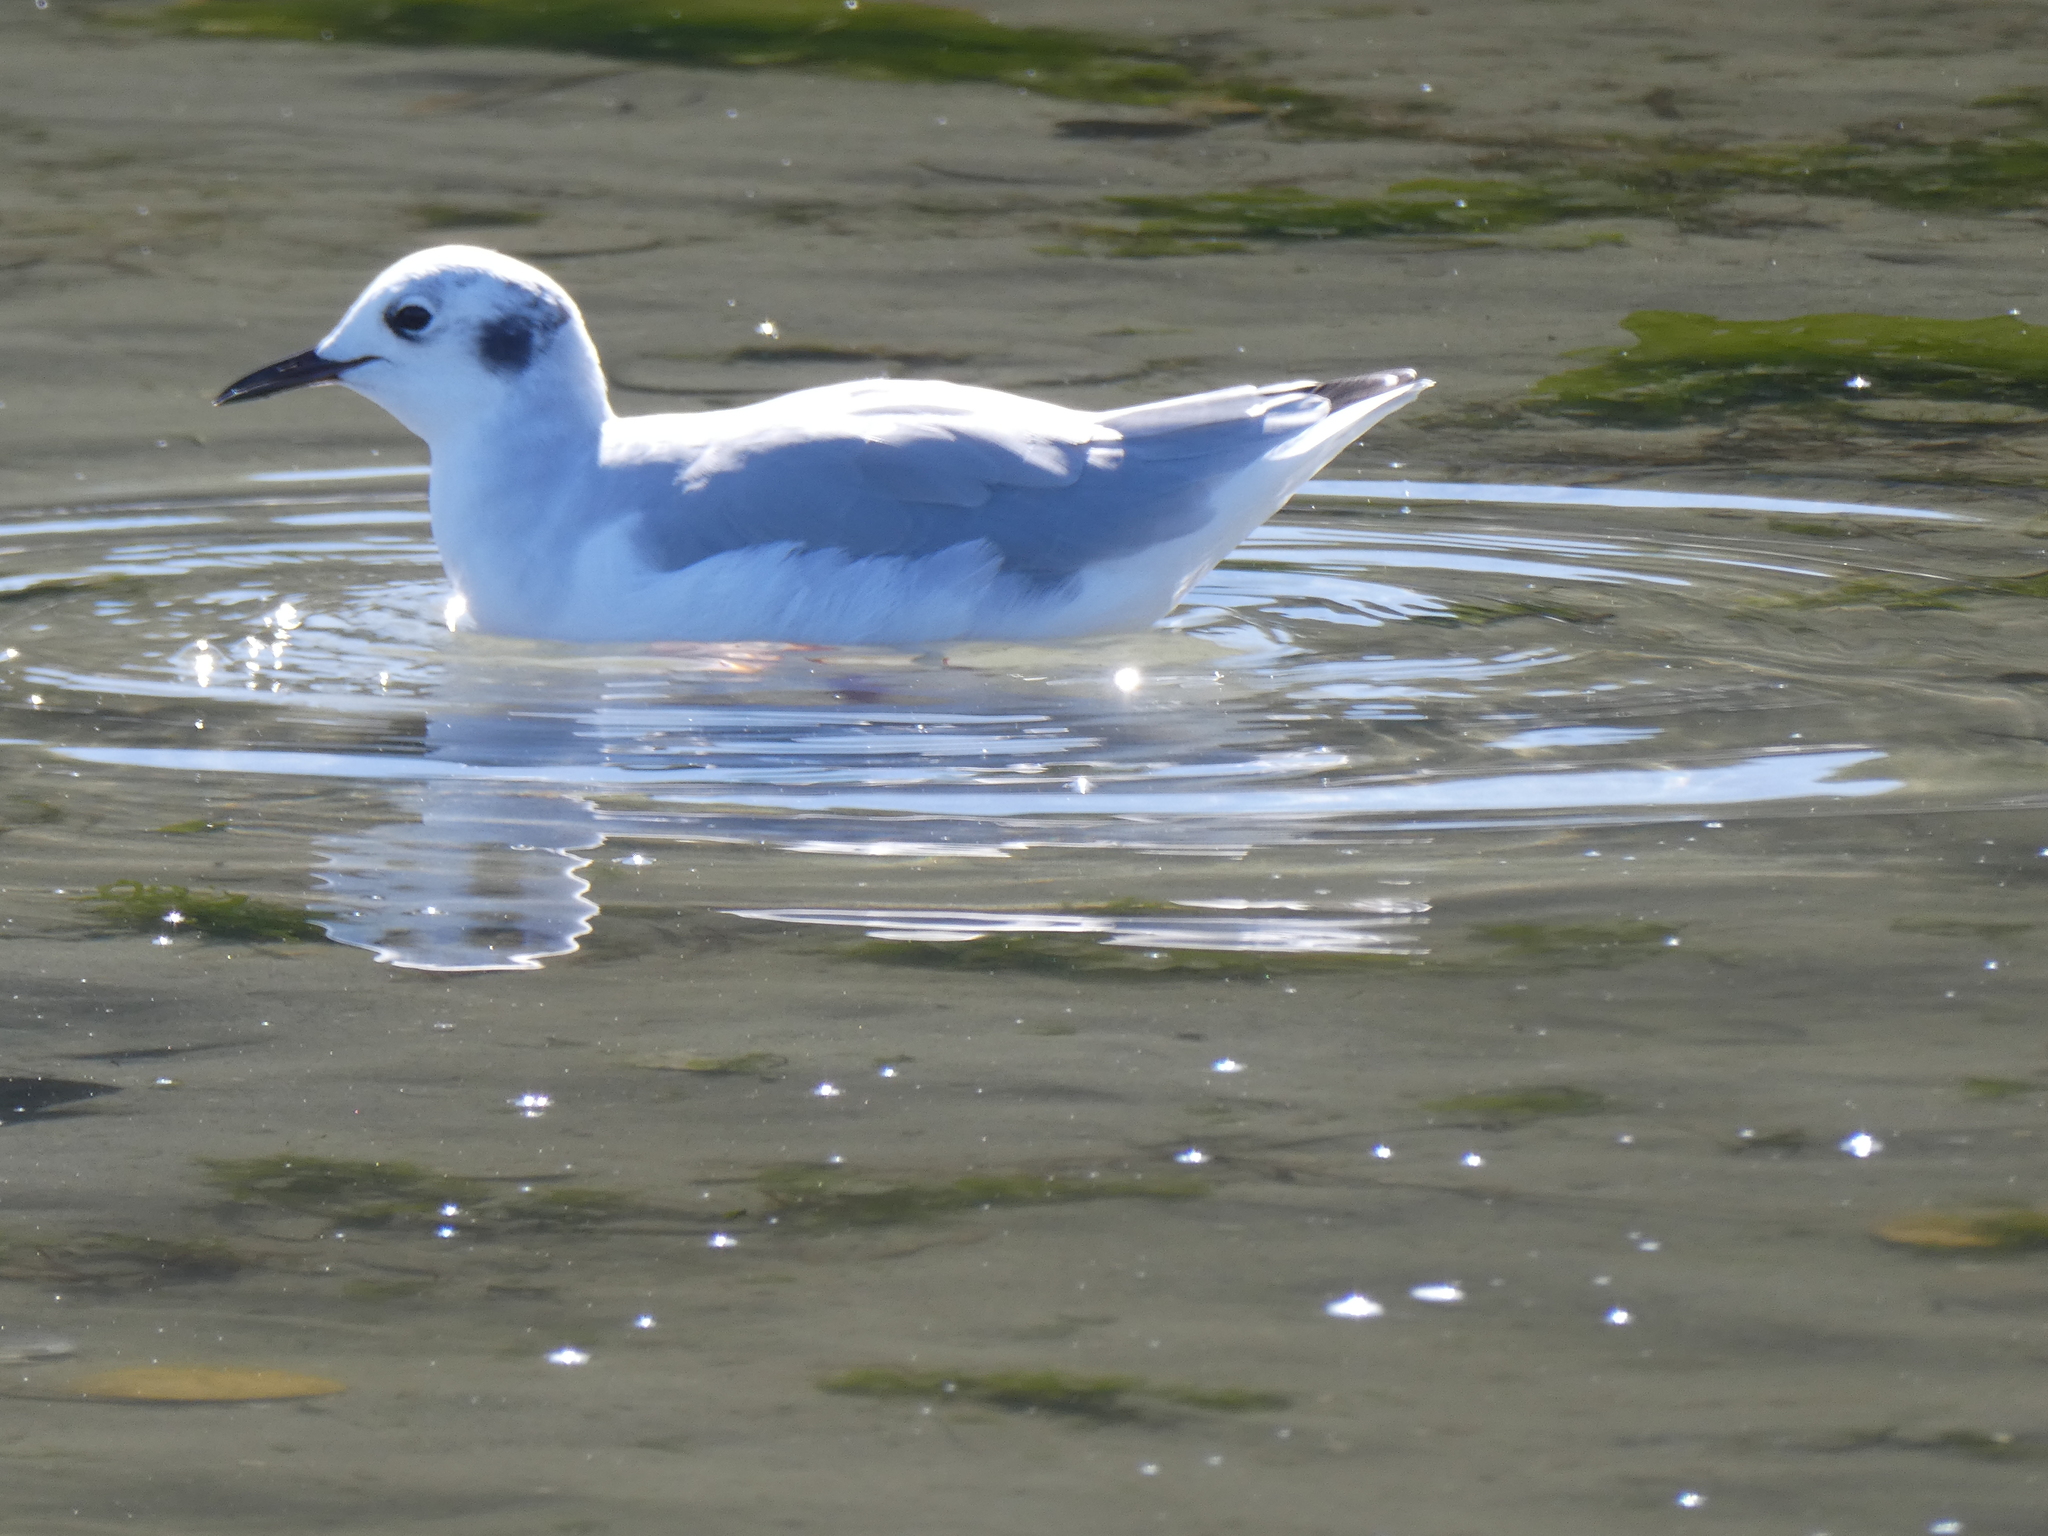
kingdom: Animalia
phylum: Chordata
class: Aves
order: Charadriiformes
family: Laridae
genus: Chroicocephalus
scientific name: Chroicocephalus philadelphia
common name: Bonaparte's gull
